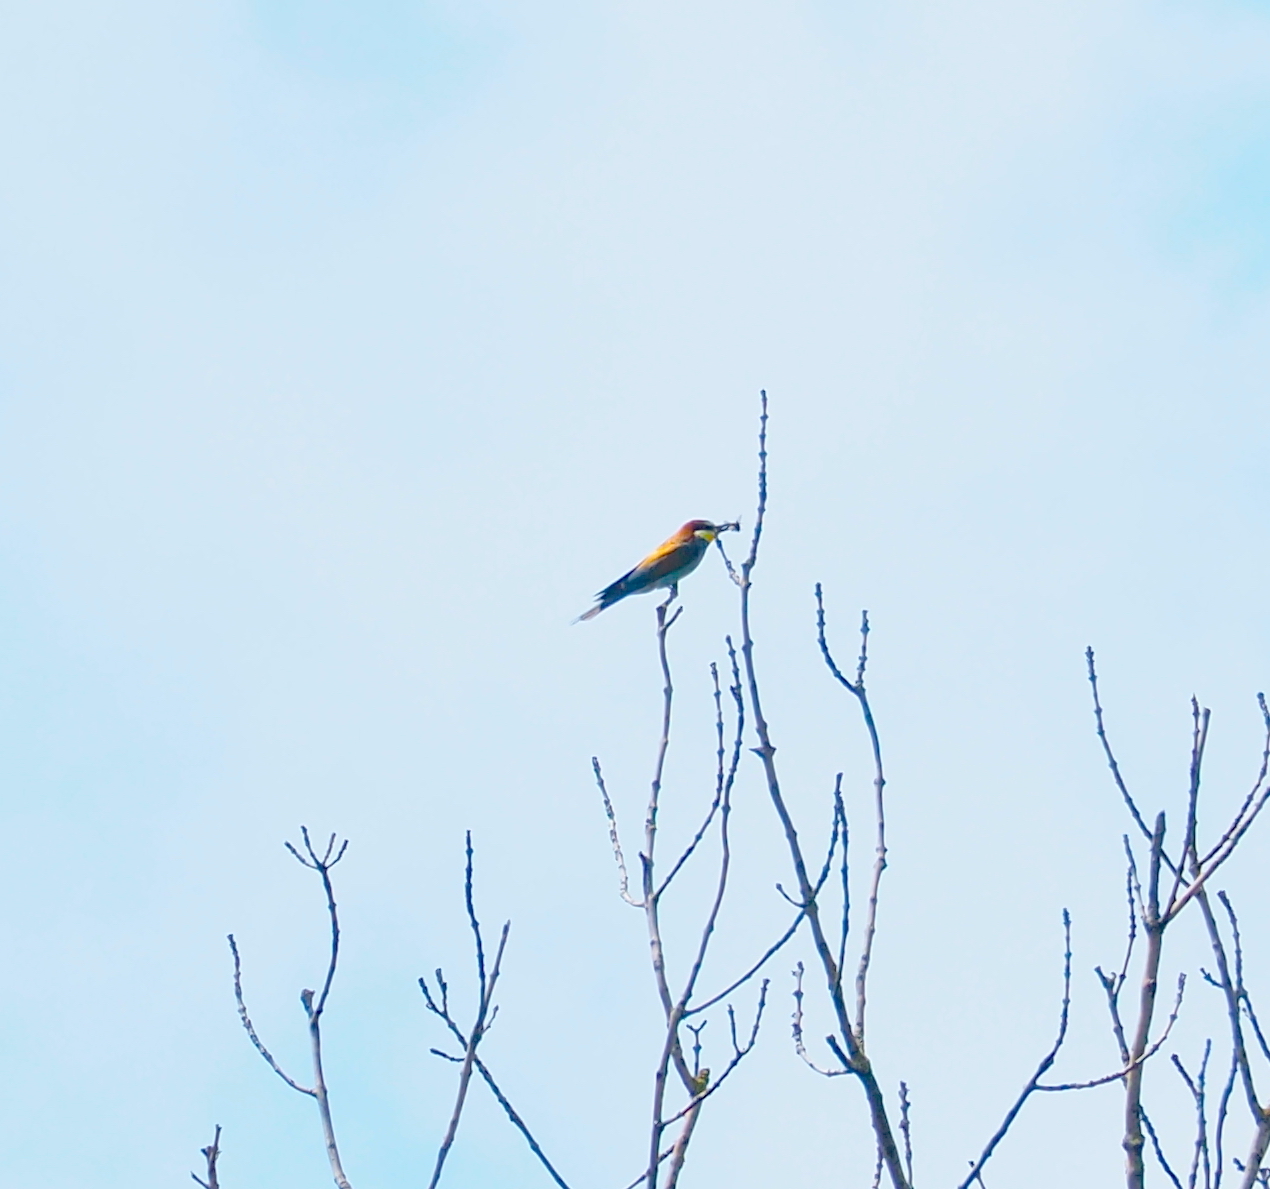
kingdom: Animalia
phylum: Chordata
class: Aves
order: Coraciiformes
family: Meropidae
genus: Merops
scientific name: Merops apiaster
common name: European bee-eater
